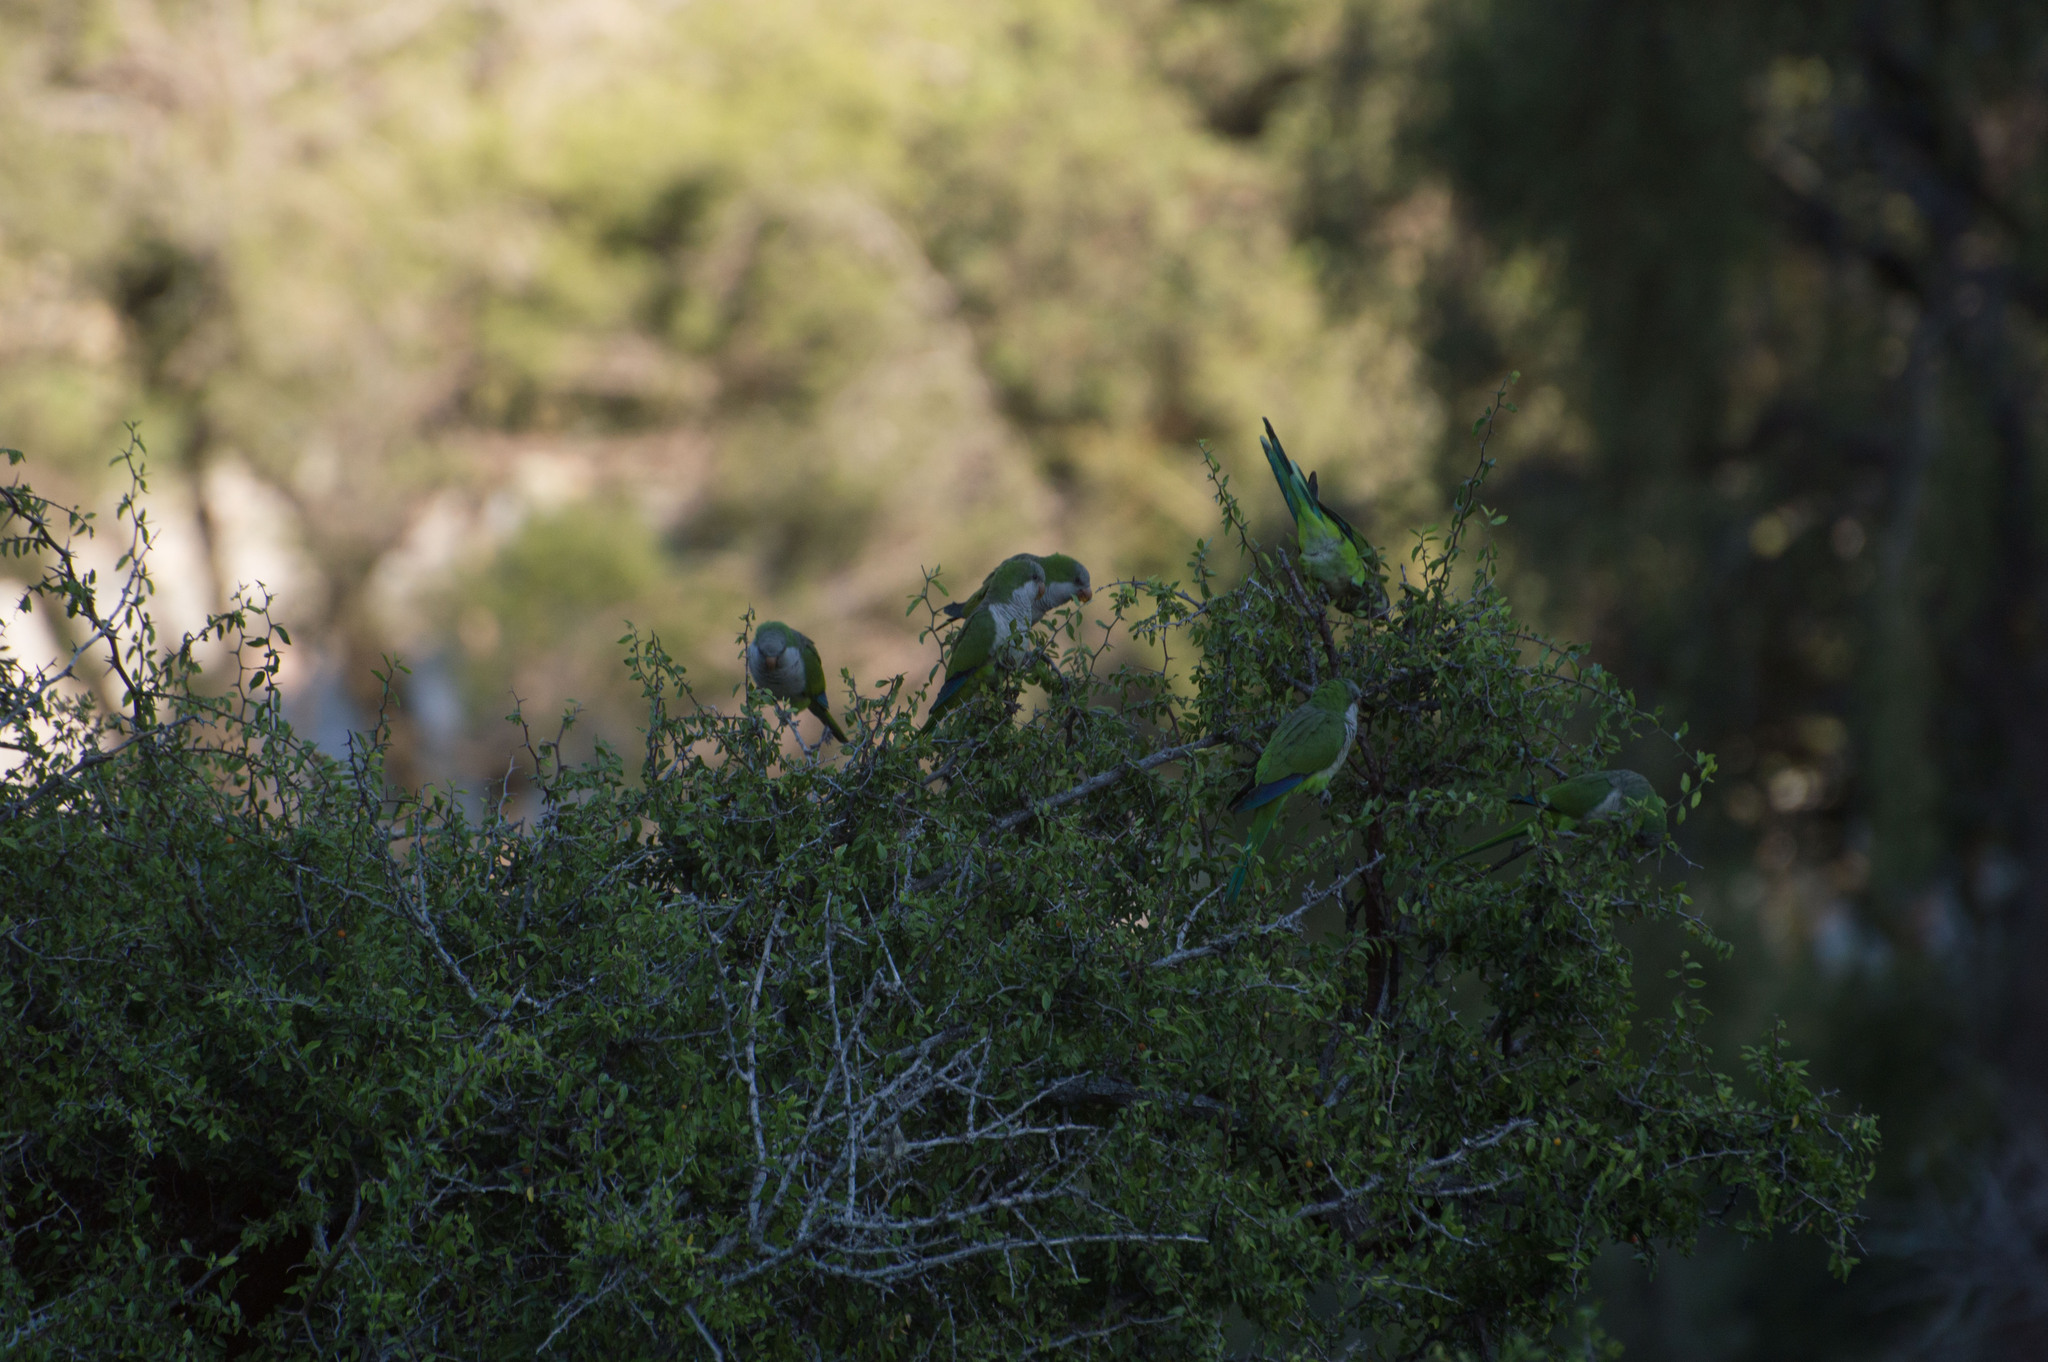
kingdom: Animalia
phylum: Chordata
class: Aves
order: Psittaciformes
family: Psittacidae
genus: Myiopsitta
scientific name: Myiopsitta monachus
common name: Monk parakeet
